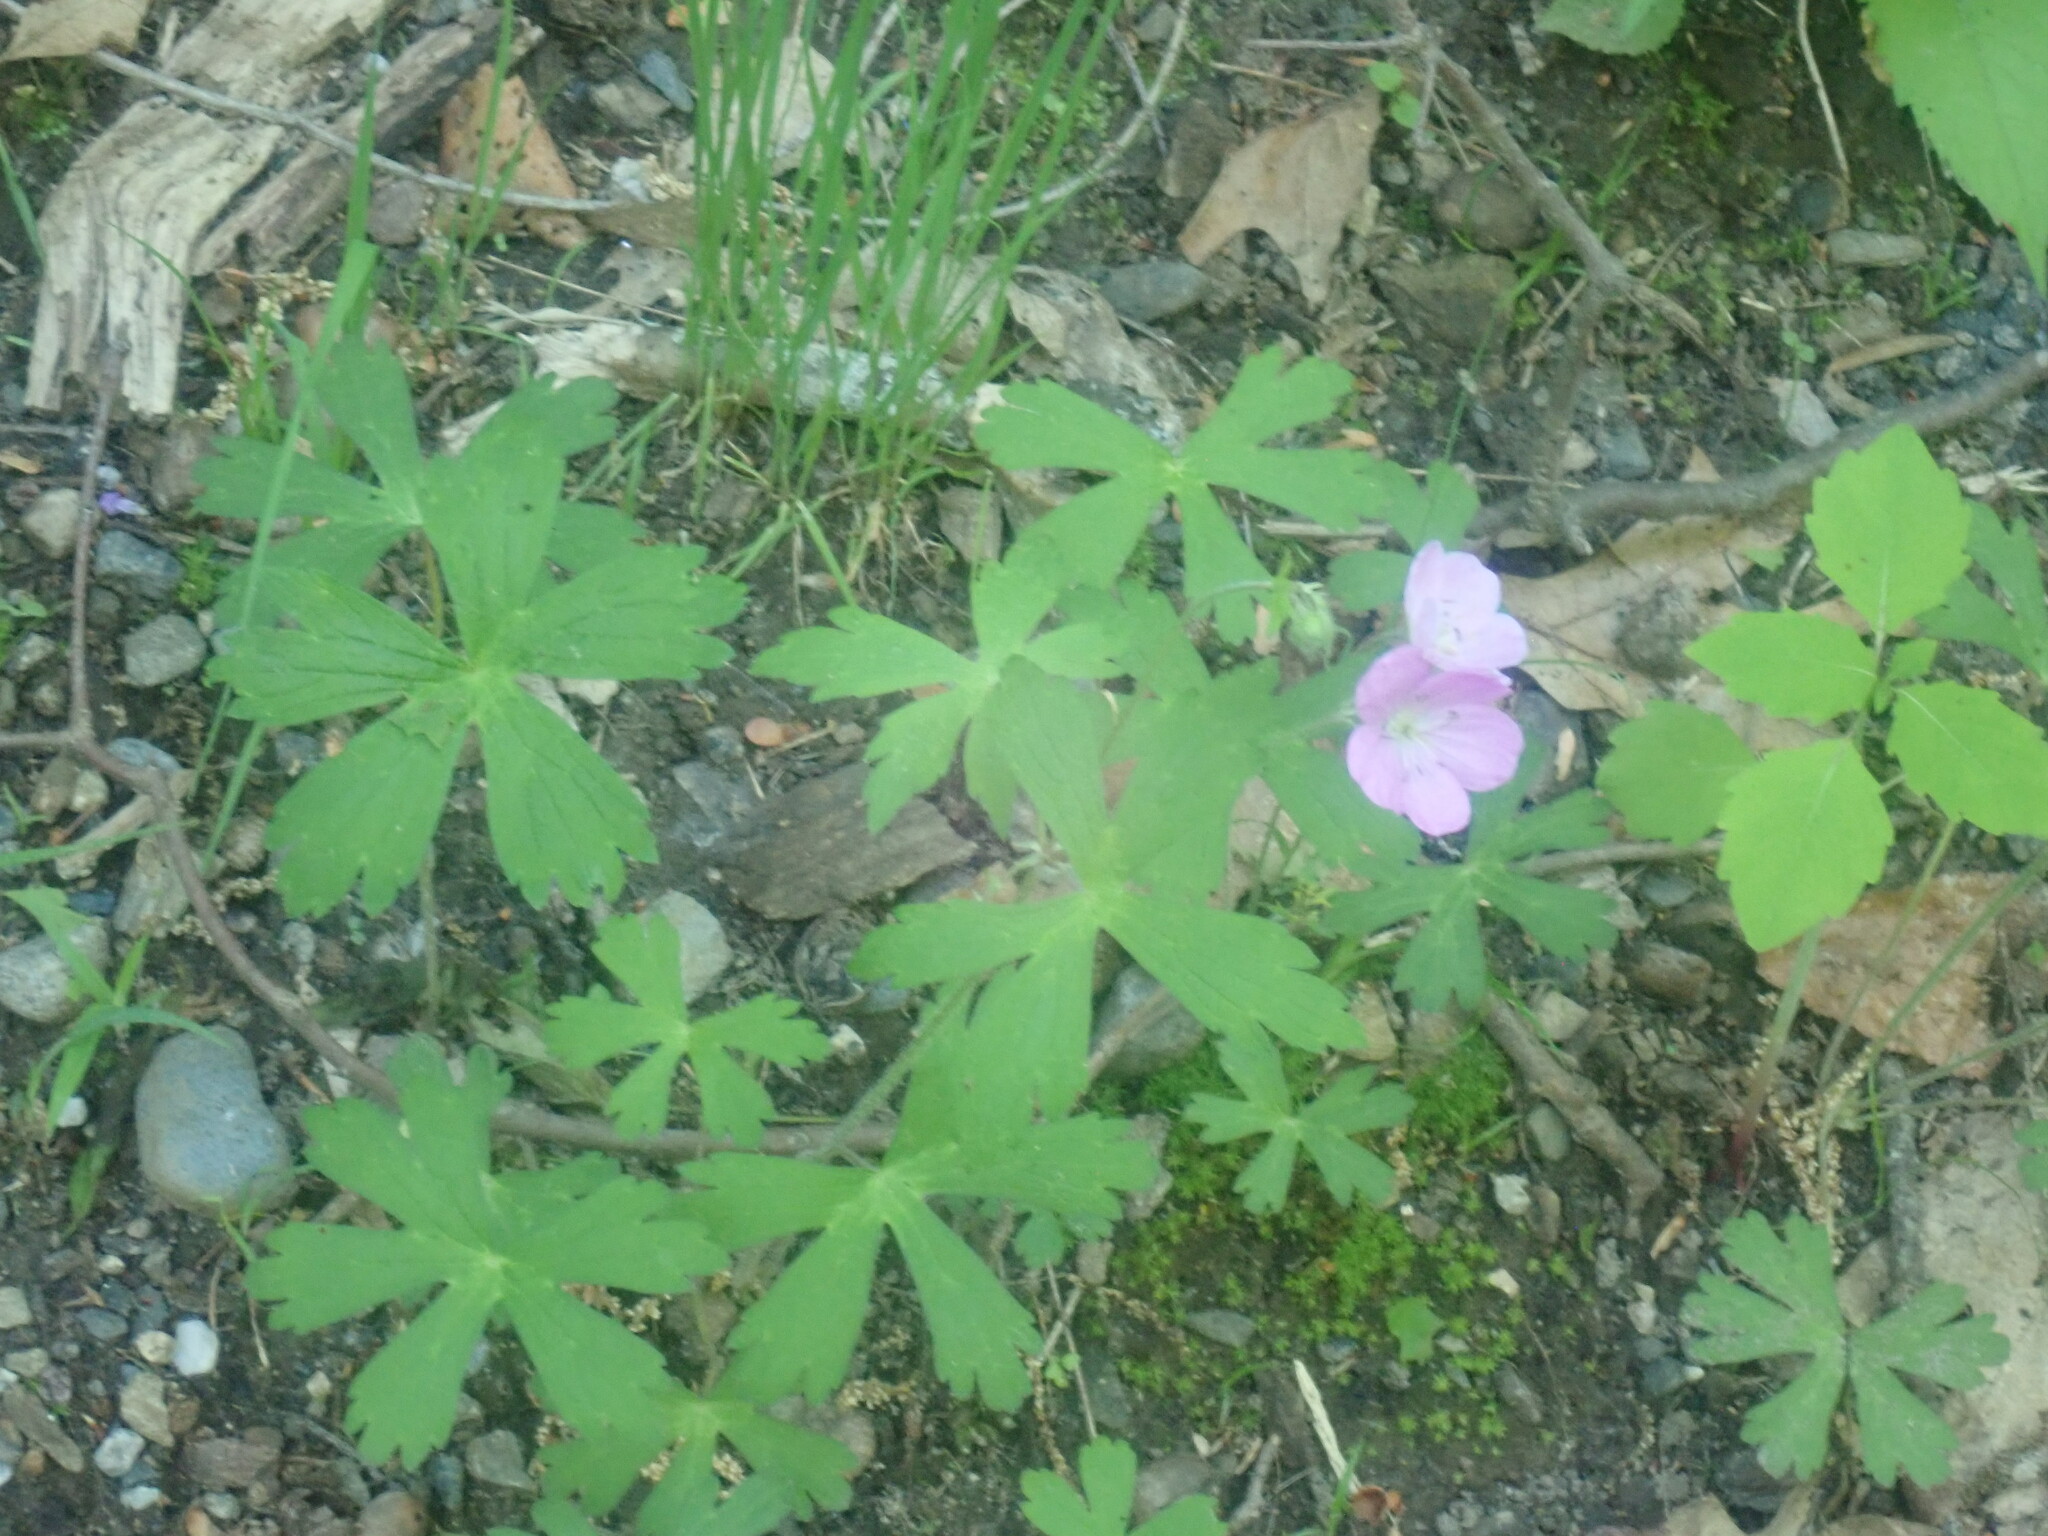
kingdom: Plantae
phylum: Tracheophyta
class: Magnoliopsida
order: Geraniales
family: Geraniaceae
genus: Geranium
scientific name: Geranium maculatum
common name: Spotted geranium
